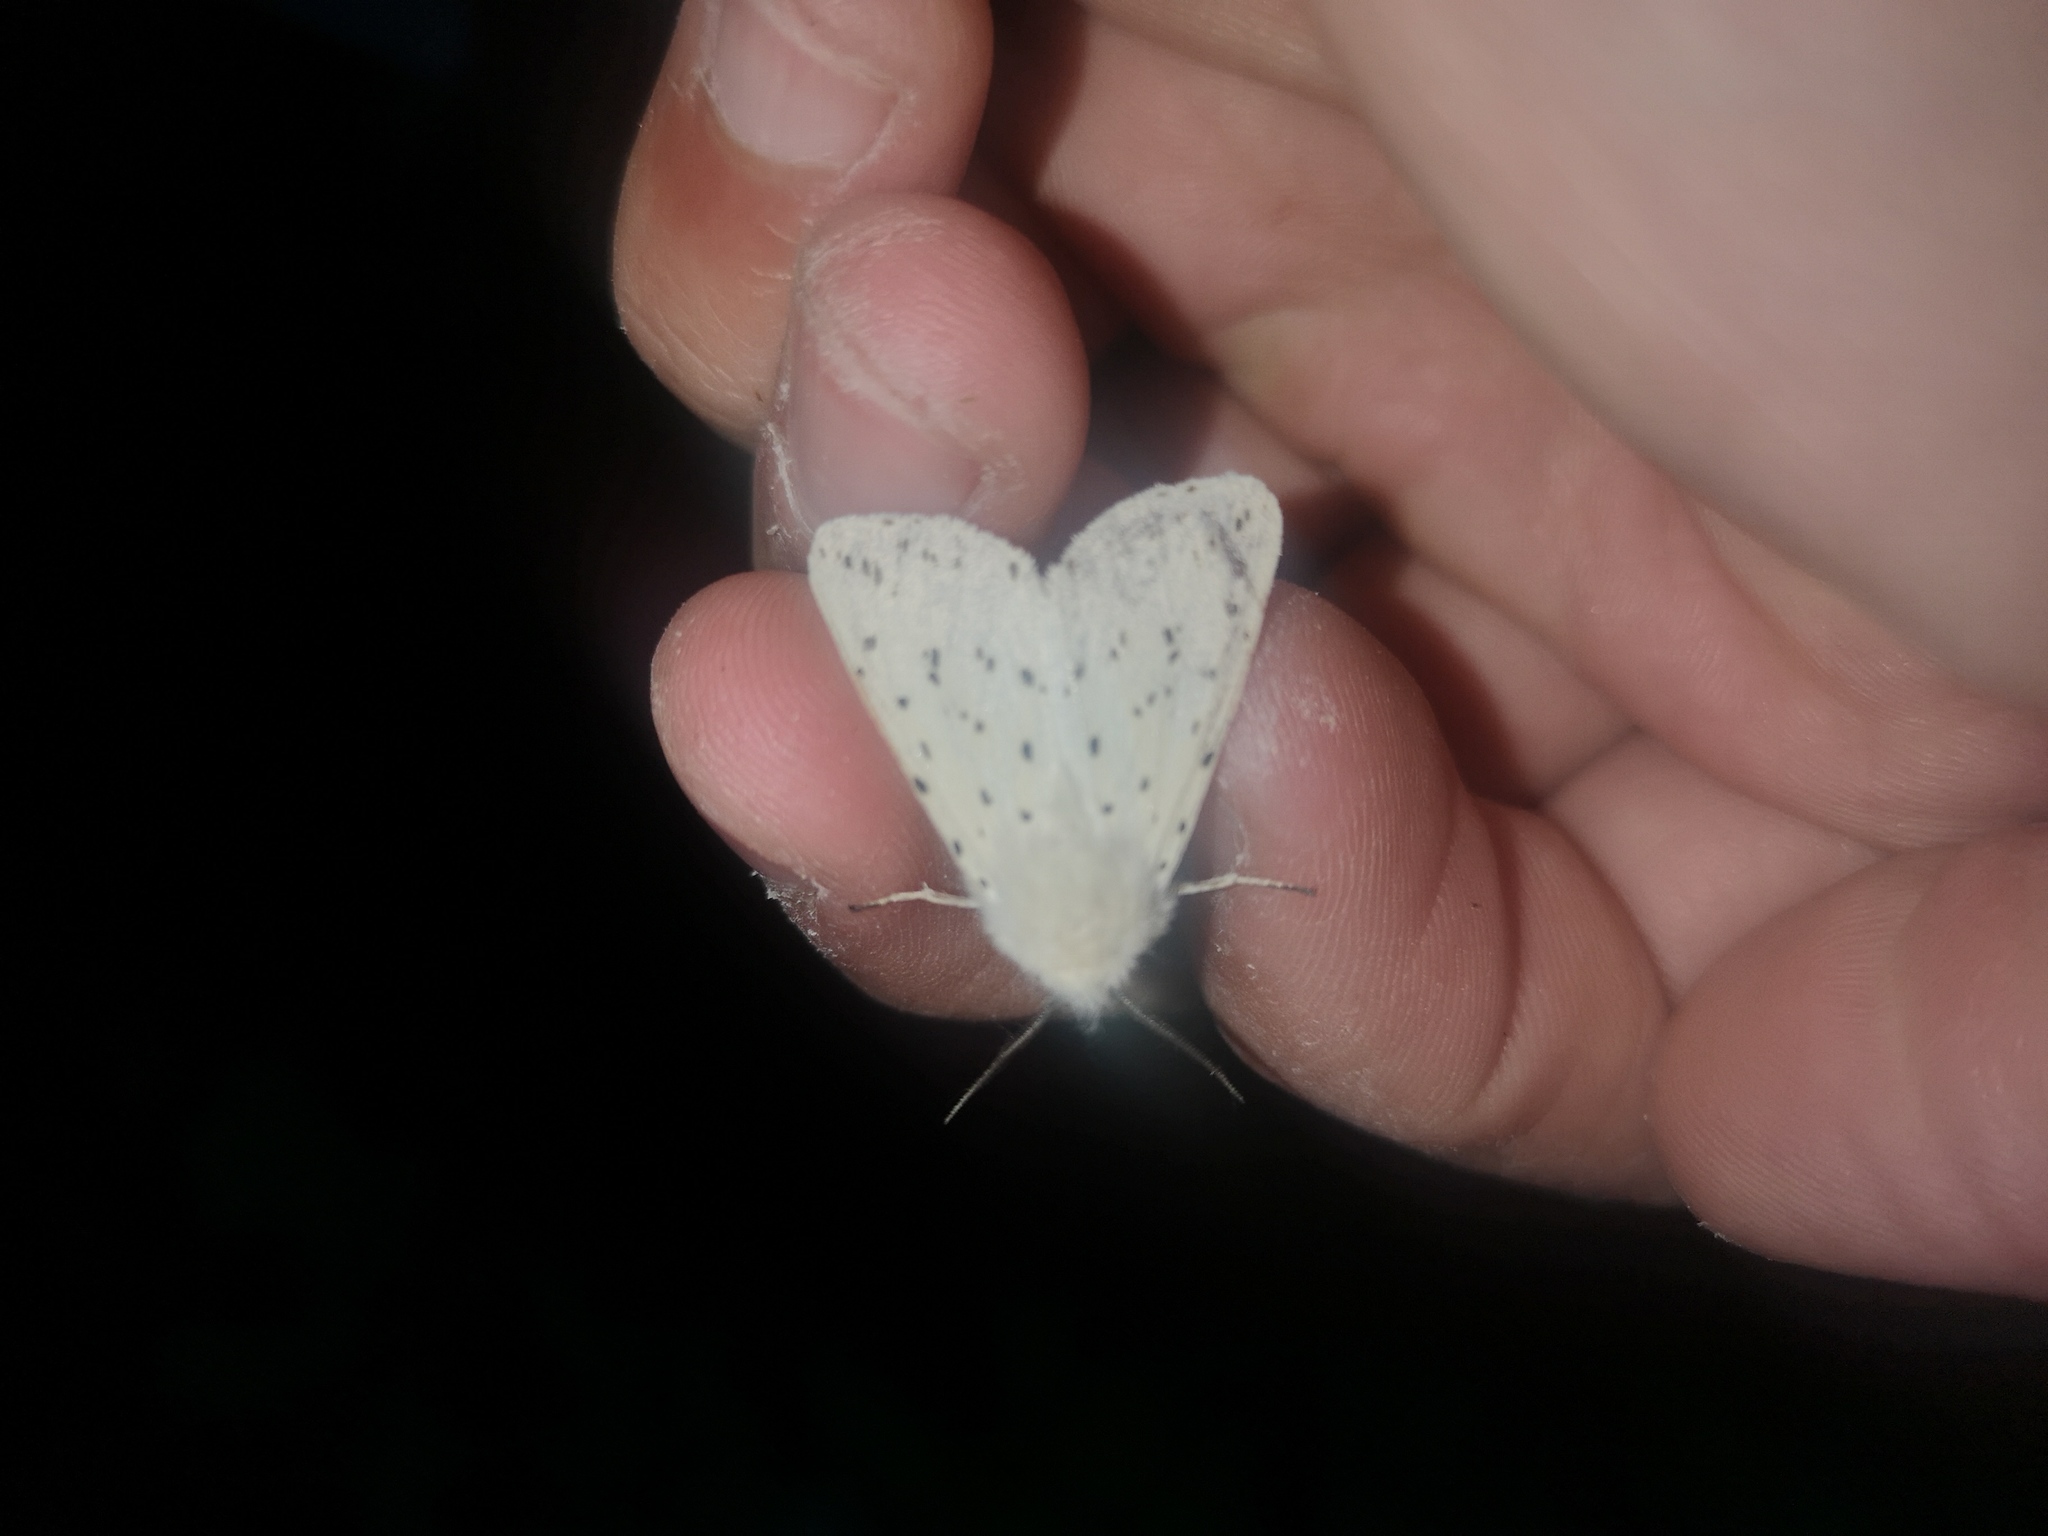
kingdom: Animalia
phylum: Arthropoda
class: Insecta
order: Lepidoptera
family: Erebidae
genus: Spilosoma
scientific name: Spilosoma lubricipeda
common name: White ermine
